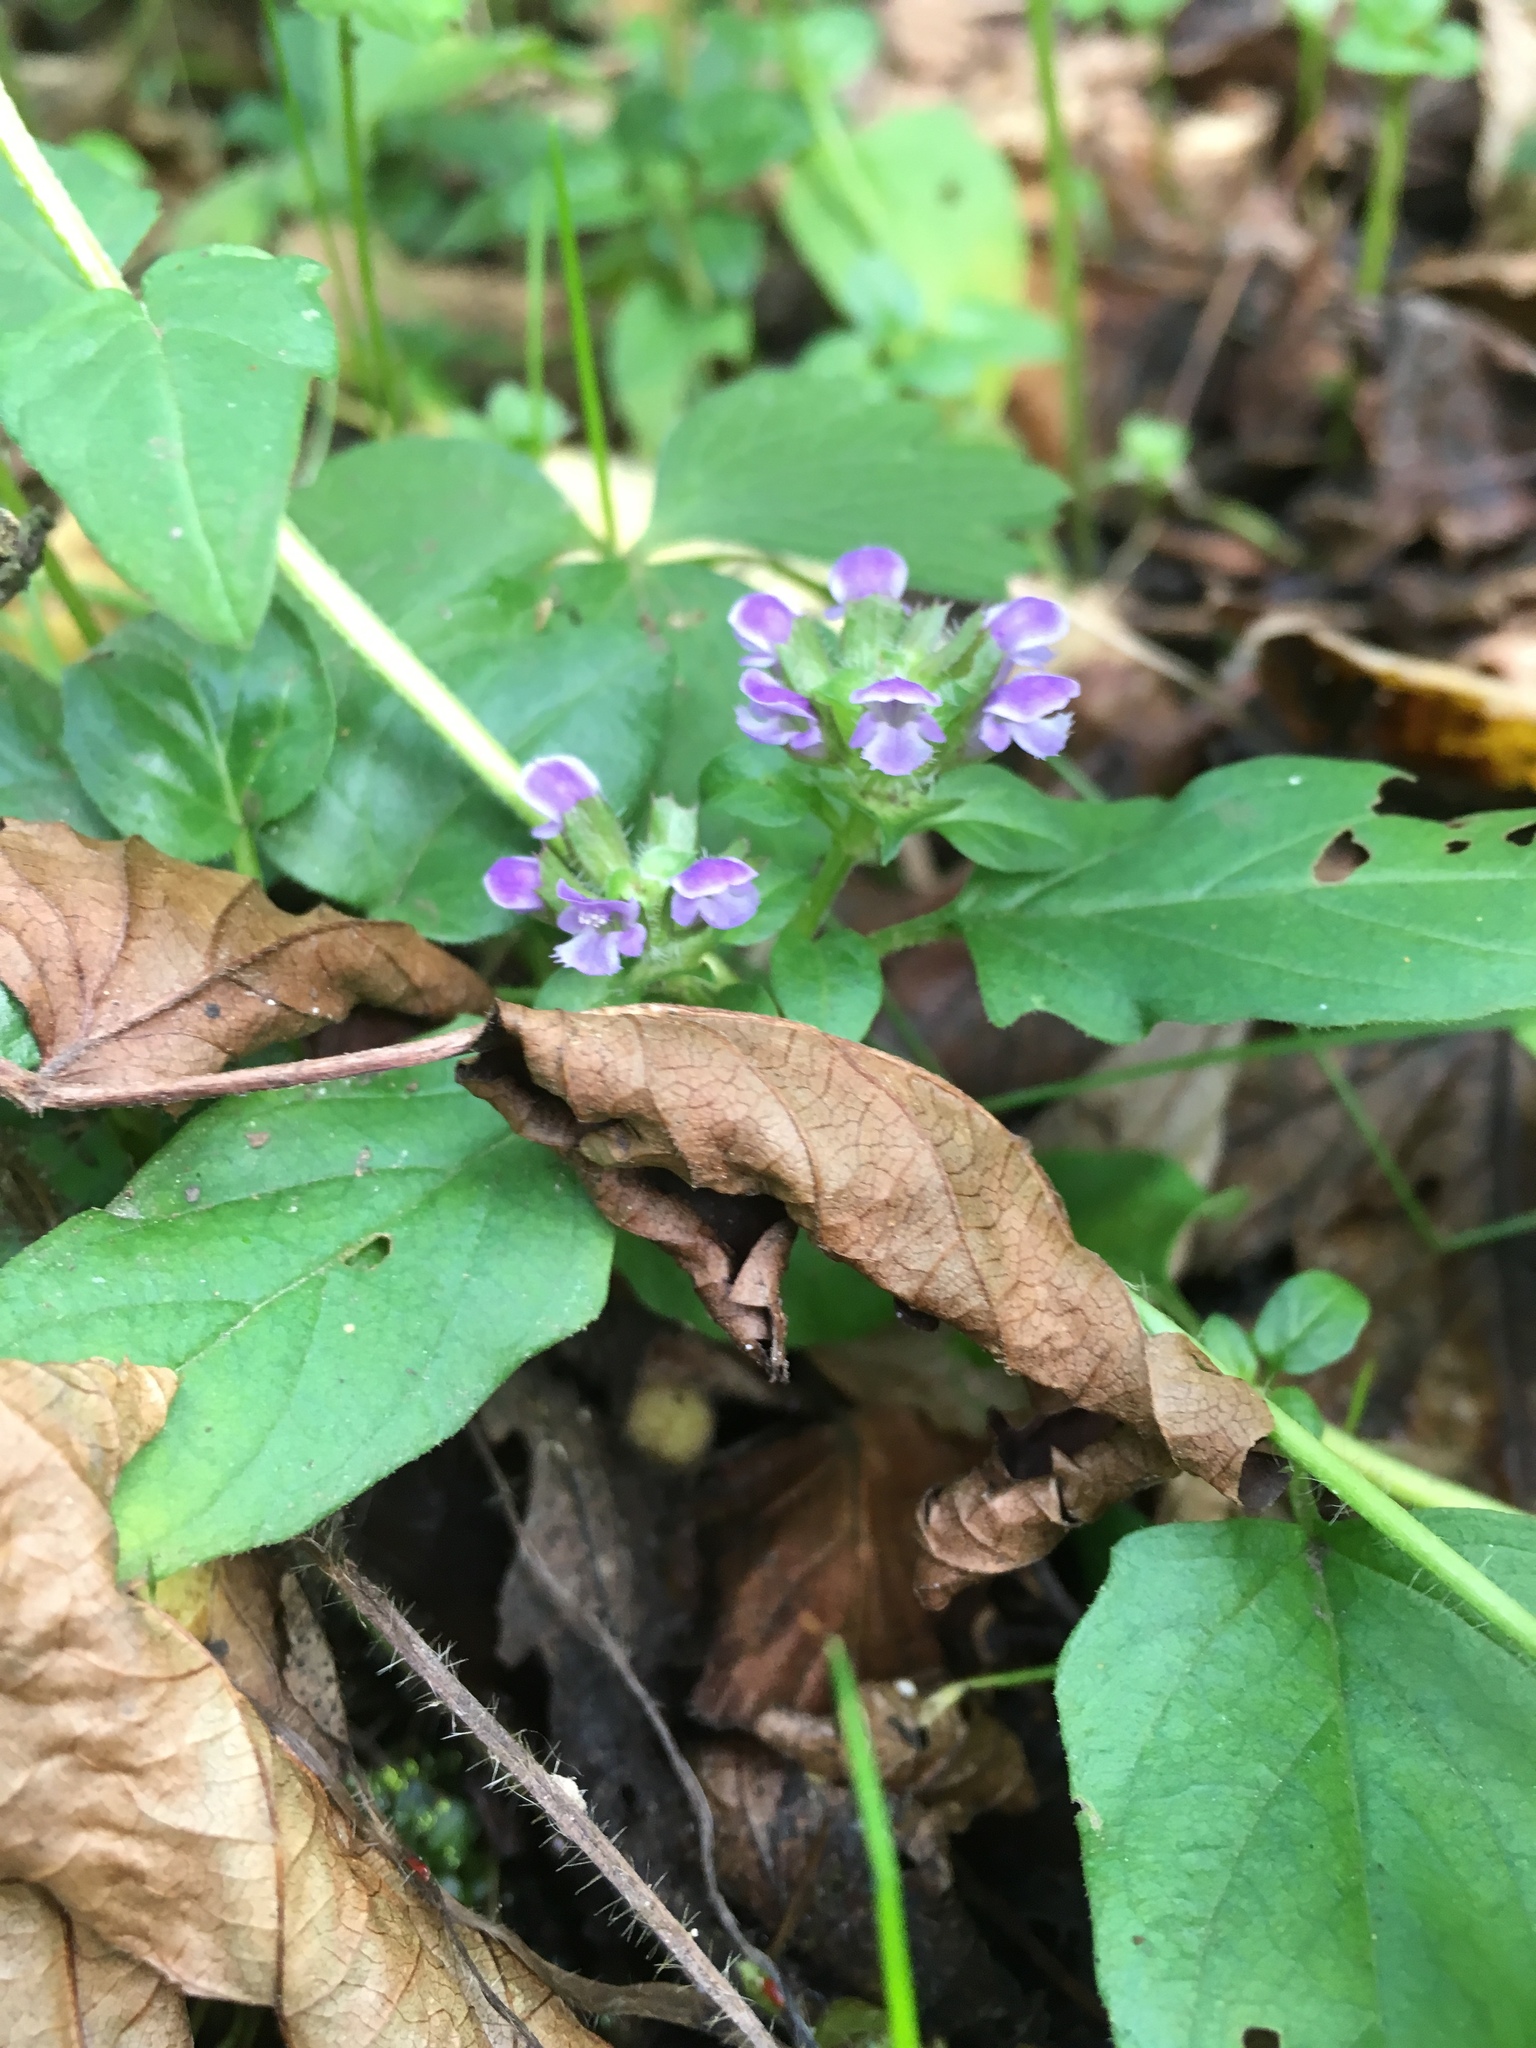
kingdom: Plantae
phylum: Tracheophyta
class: Magnoliopsida
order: Lamiales
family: Lamiaceae
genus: Prunella
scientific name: Prunella vulgaris
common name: Heal-all
